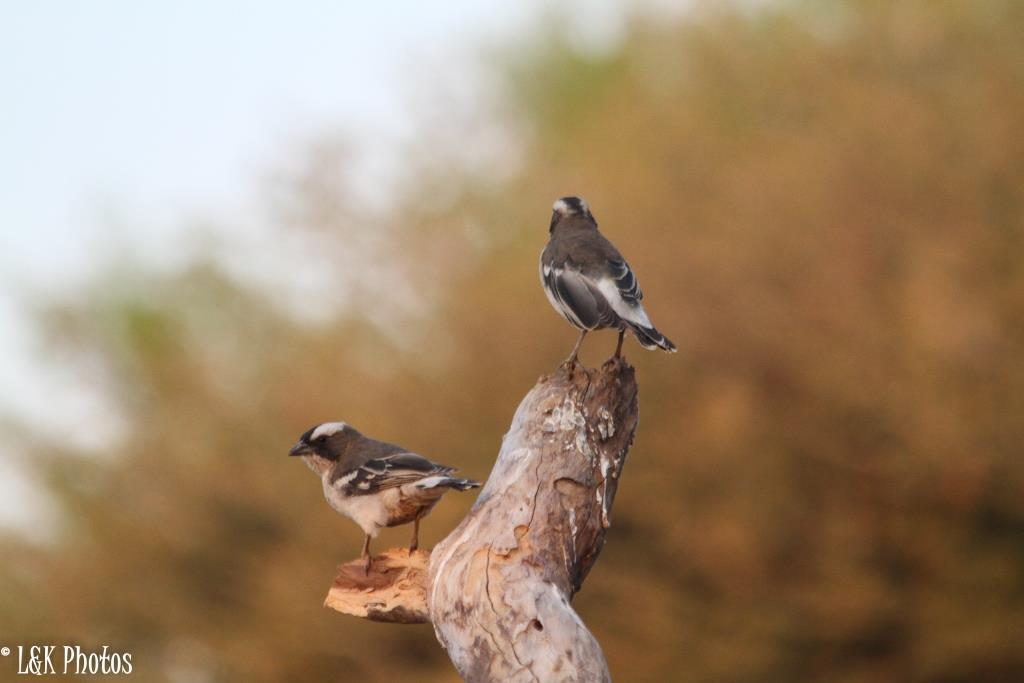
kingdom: Animalia
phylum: Chordata
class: Aves
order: Passeriformes
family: Passeridae
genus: Plocepasser
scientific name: Plocepasser mahali
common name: White-browed sparrow-weaver
